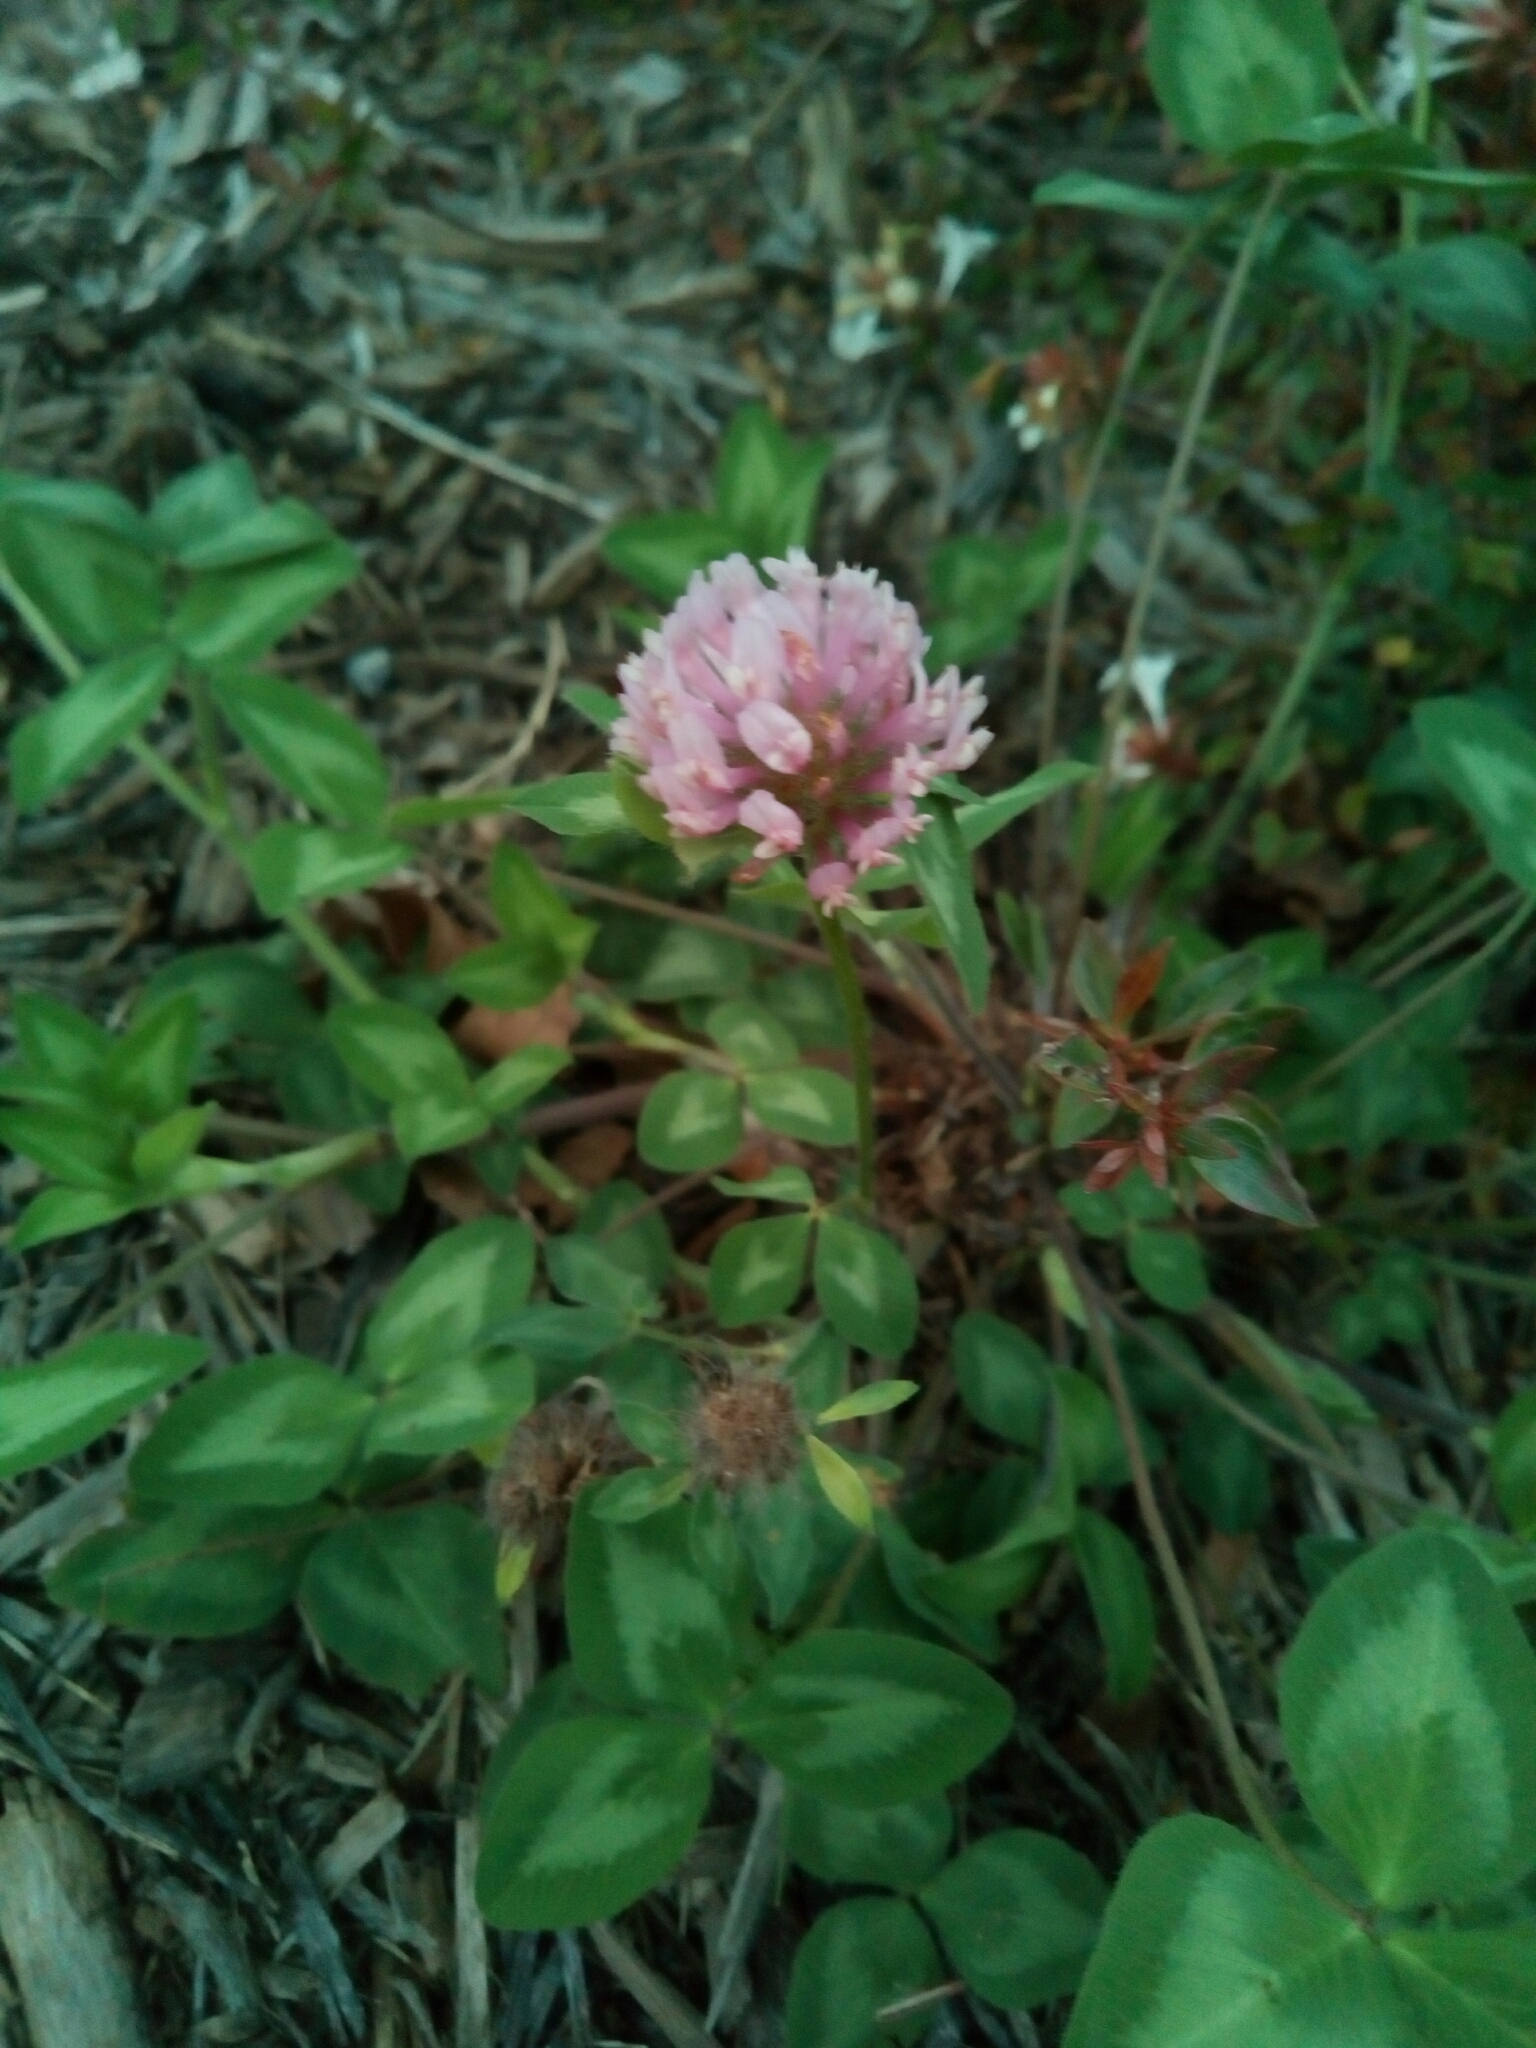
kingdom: Plantae
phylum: Tracheophyta
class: Magnoliopsida
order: Fabales
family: Fabaceae
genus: Trifolium
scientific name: Trifolium pratense
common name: Red clover
